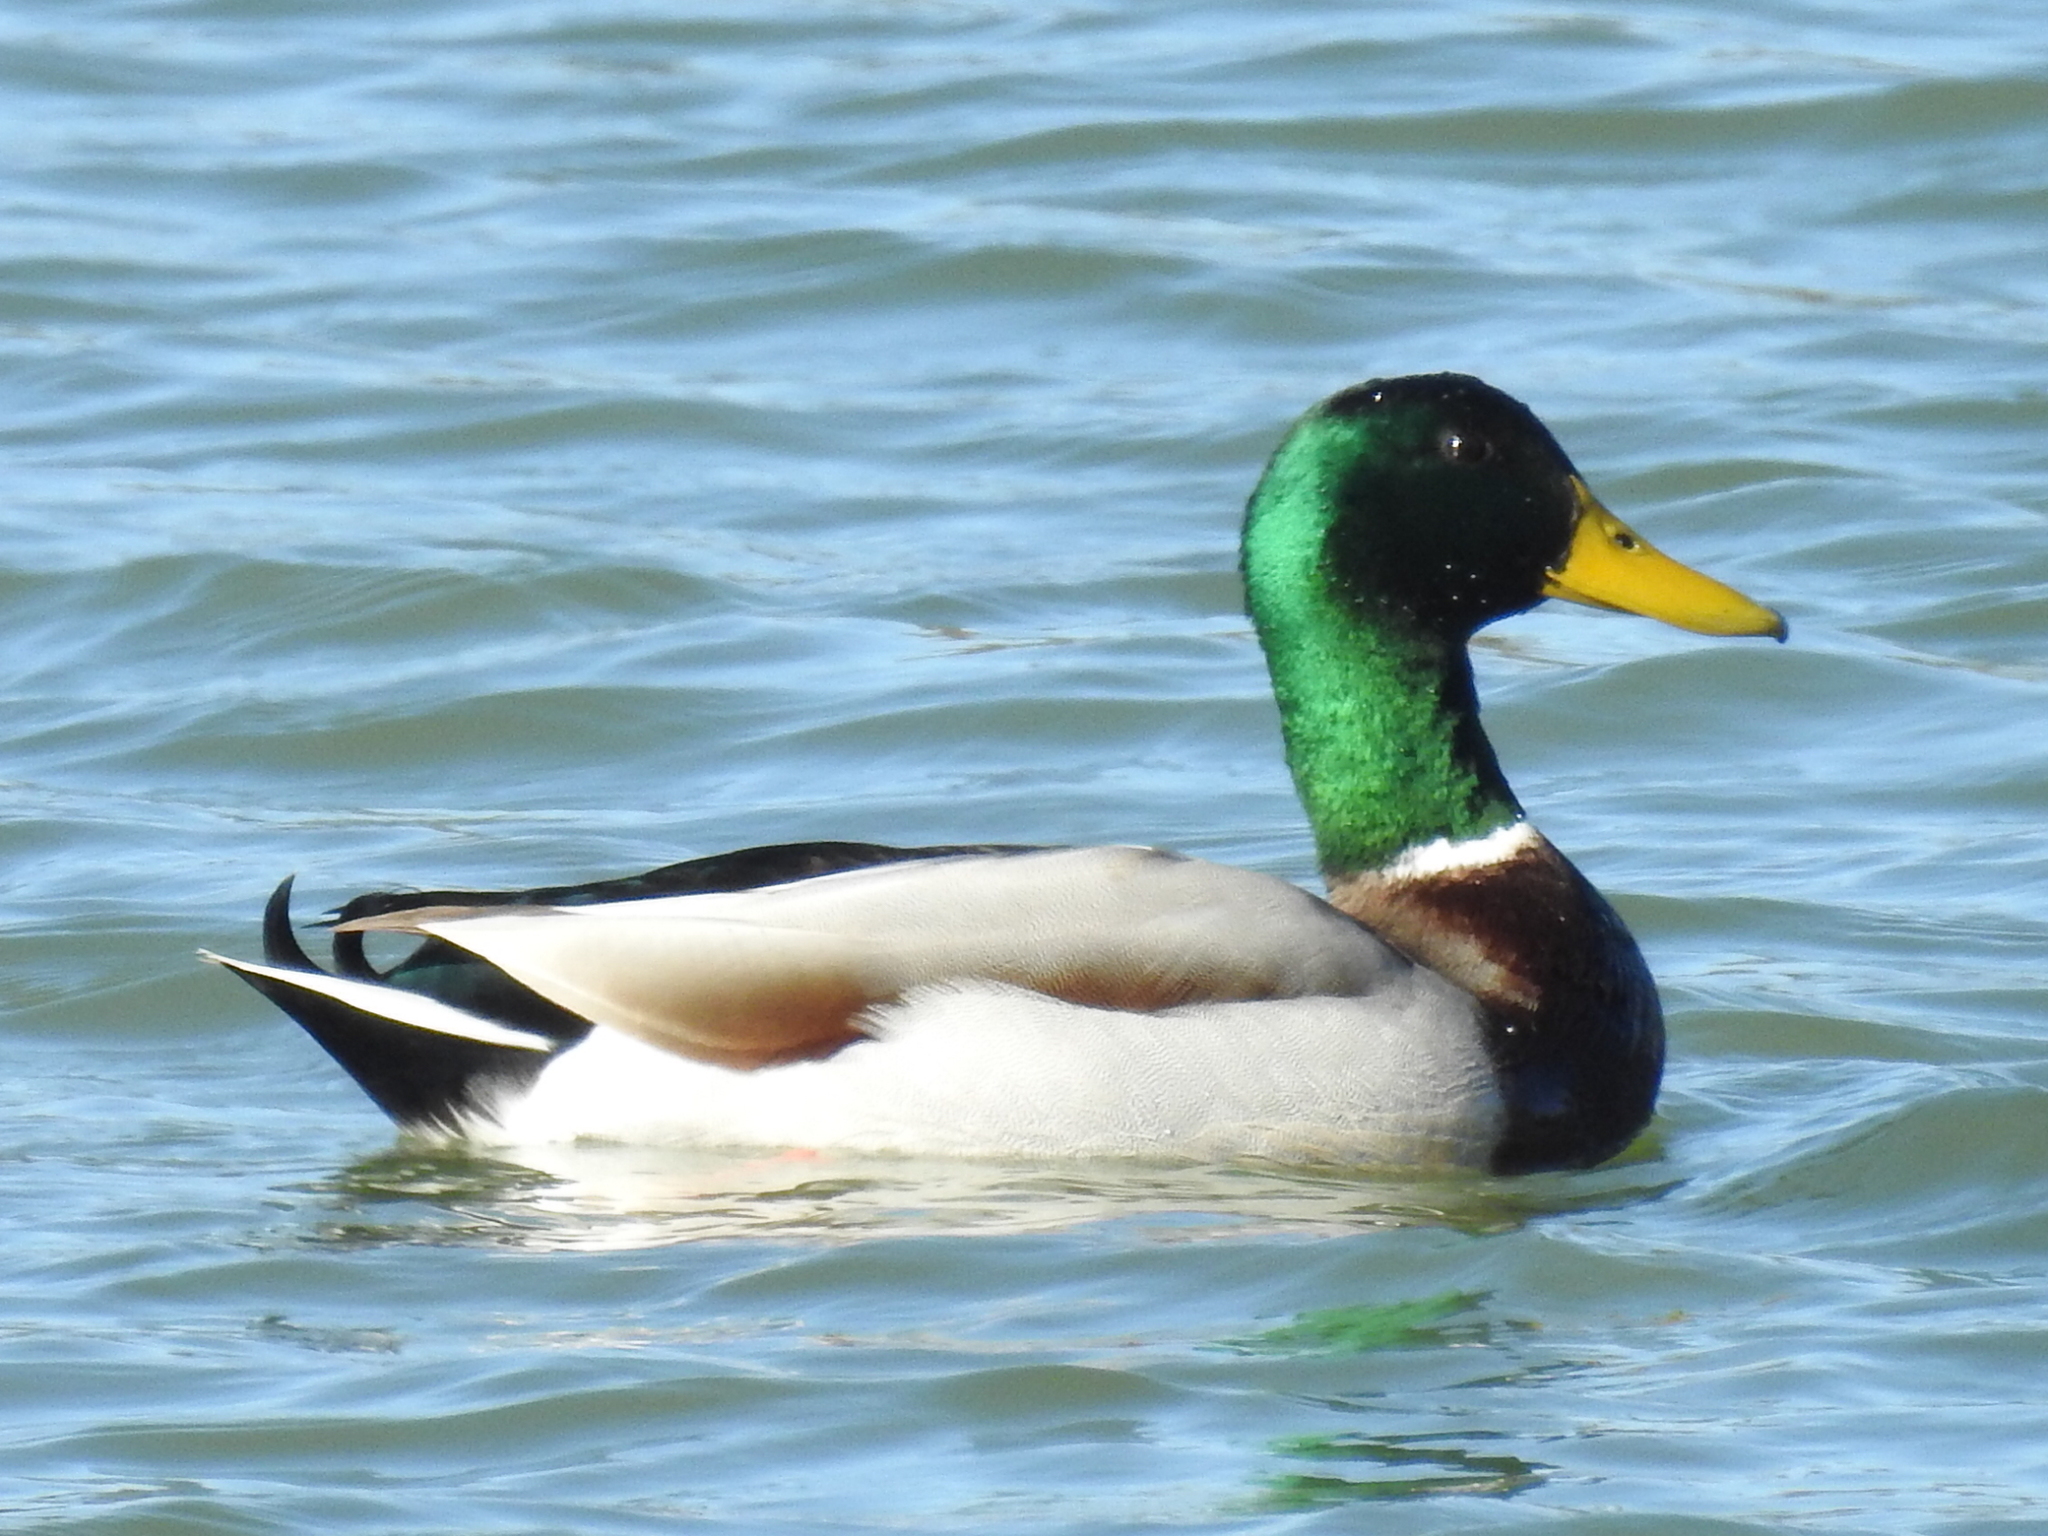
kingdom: Animalia
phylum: Chordata
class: Aves
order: Anseriformes
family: Anatidae
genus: Anas
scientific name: Anas platyrhynchos
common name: Mallard
